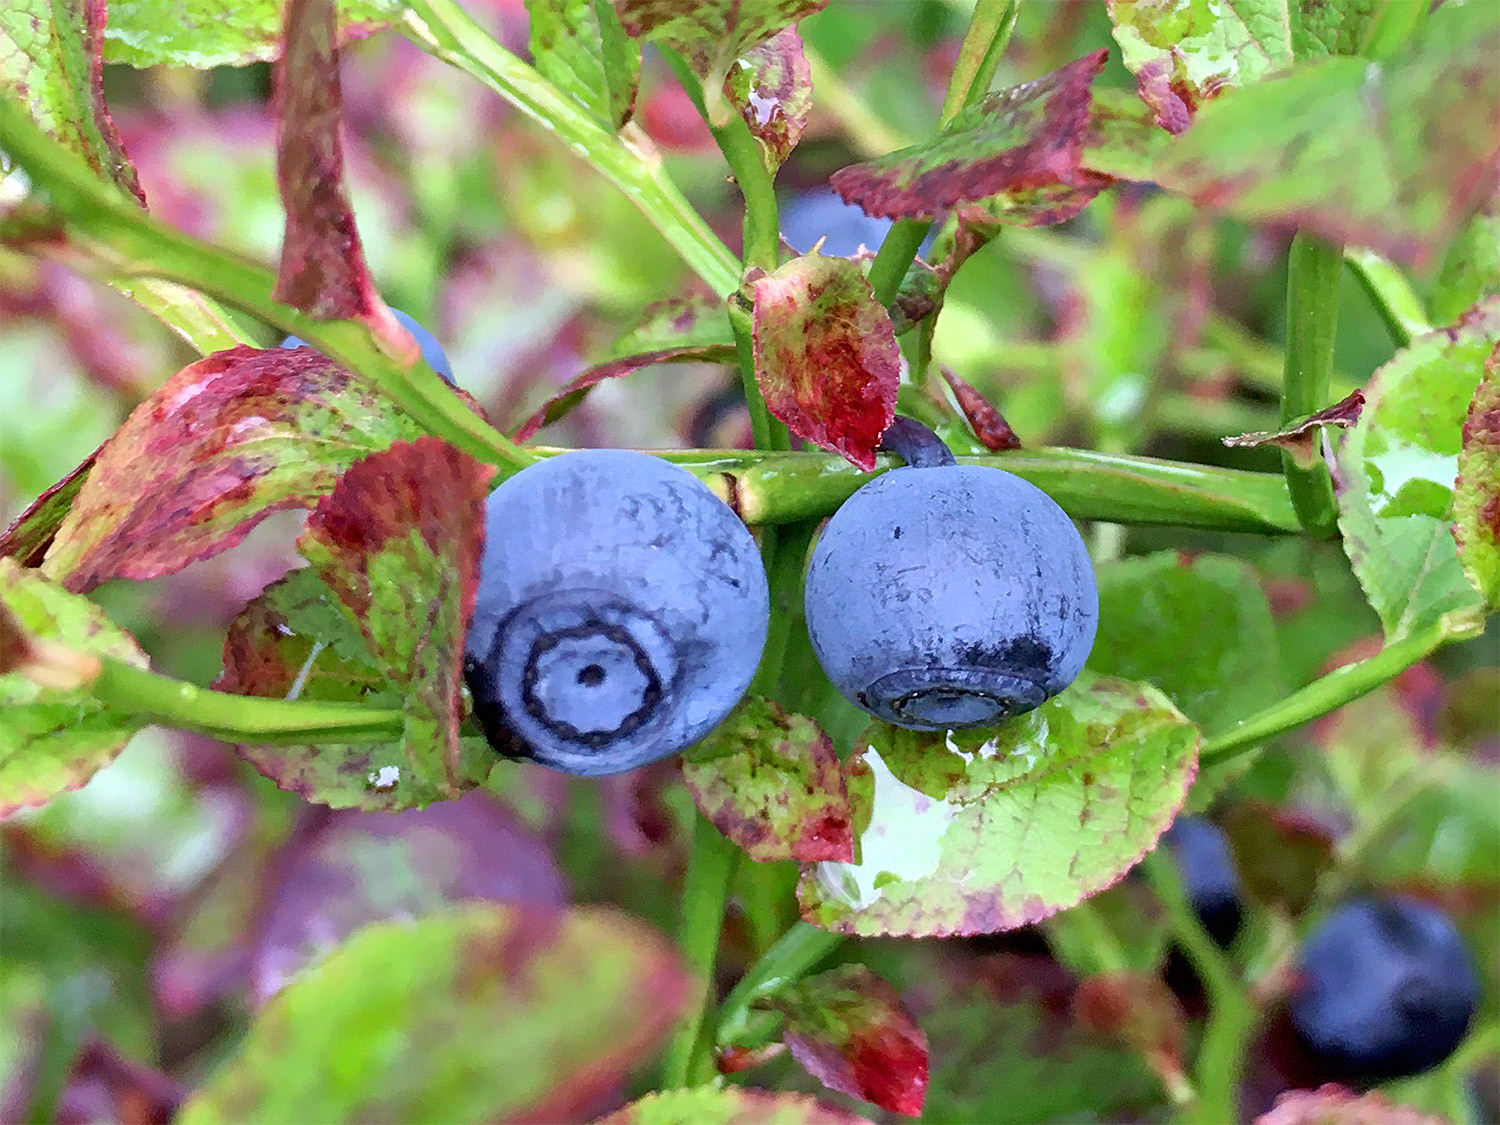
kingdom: Plantae
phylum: Tracheophyta
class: Magnoliopsida
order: Ericales
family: Ericaceae
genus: Vaccinium
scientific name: Vaccinium myrtillus
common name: Bilberry
